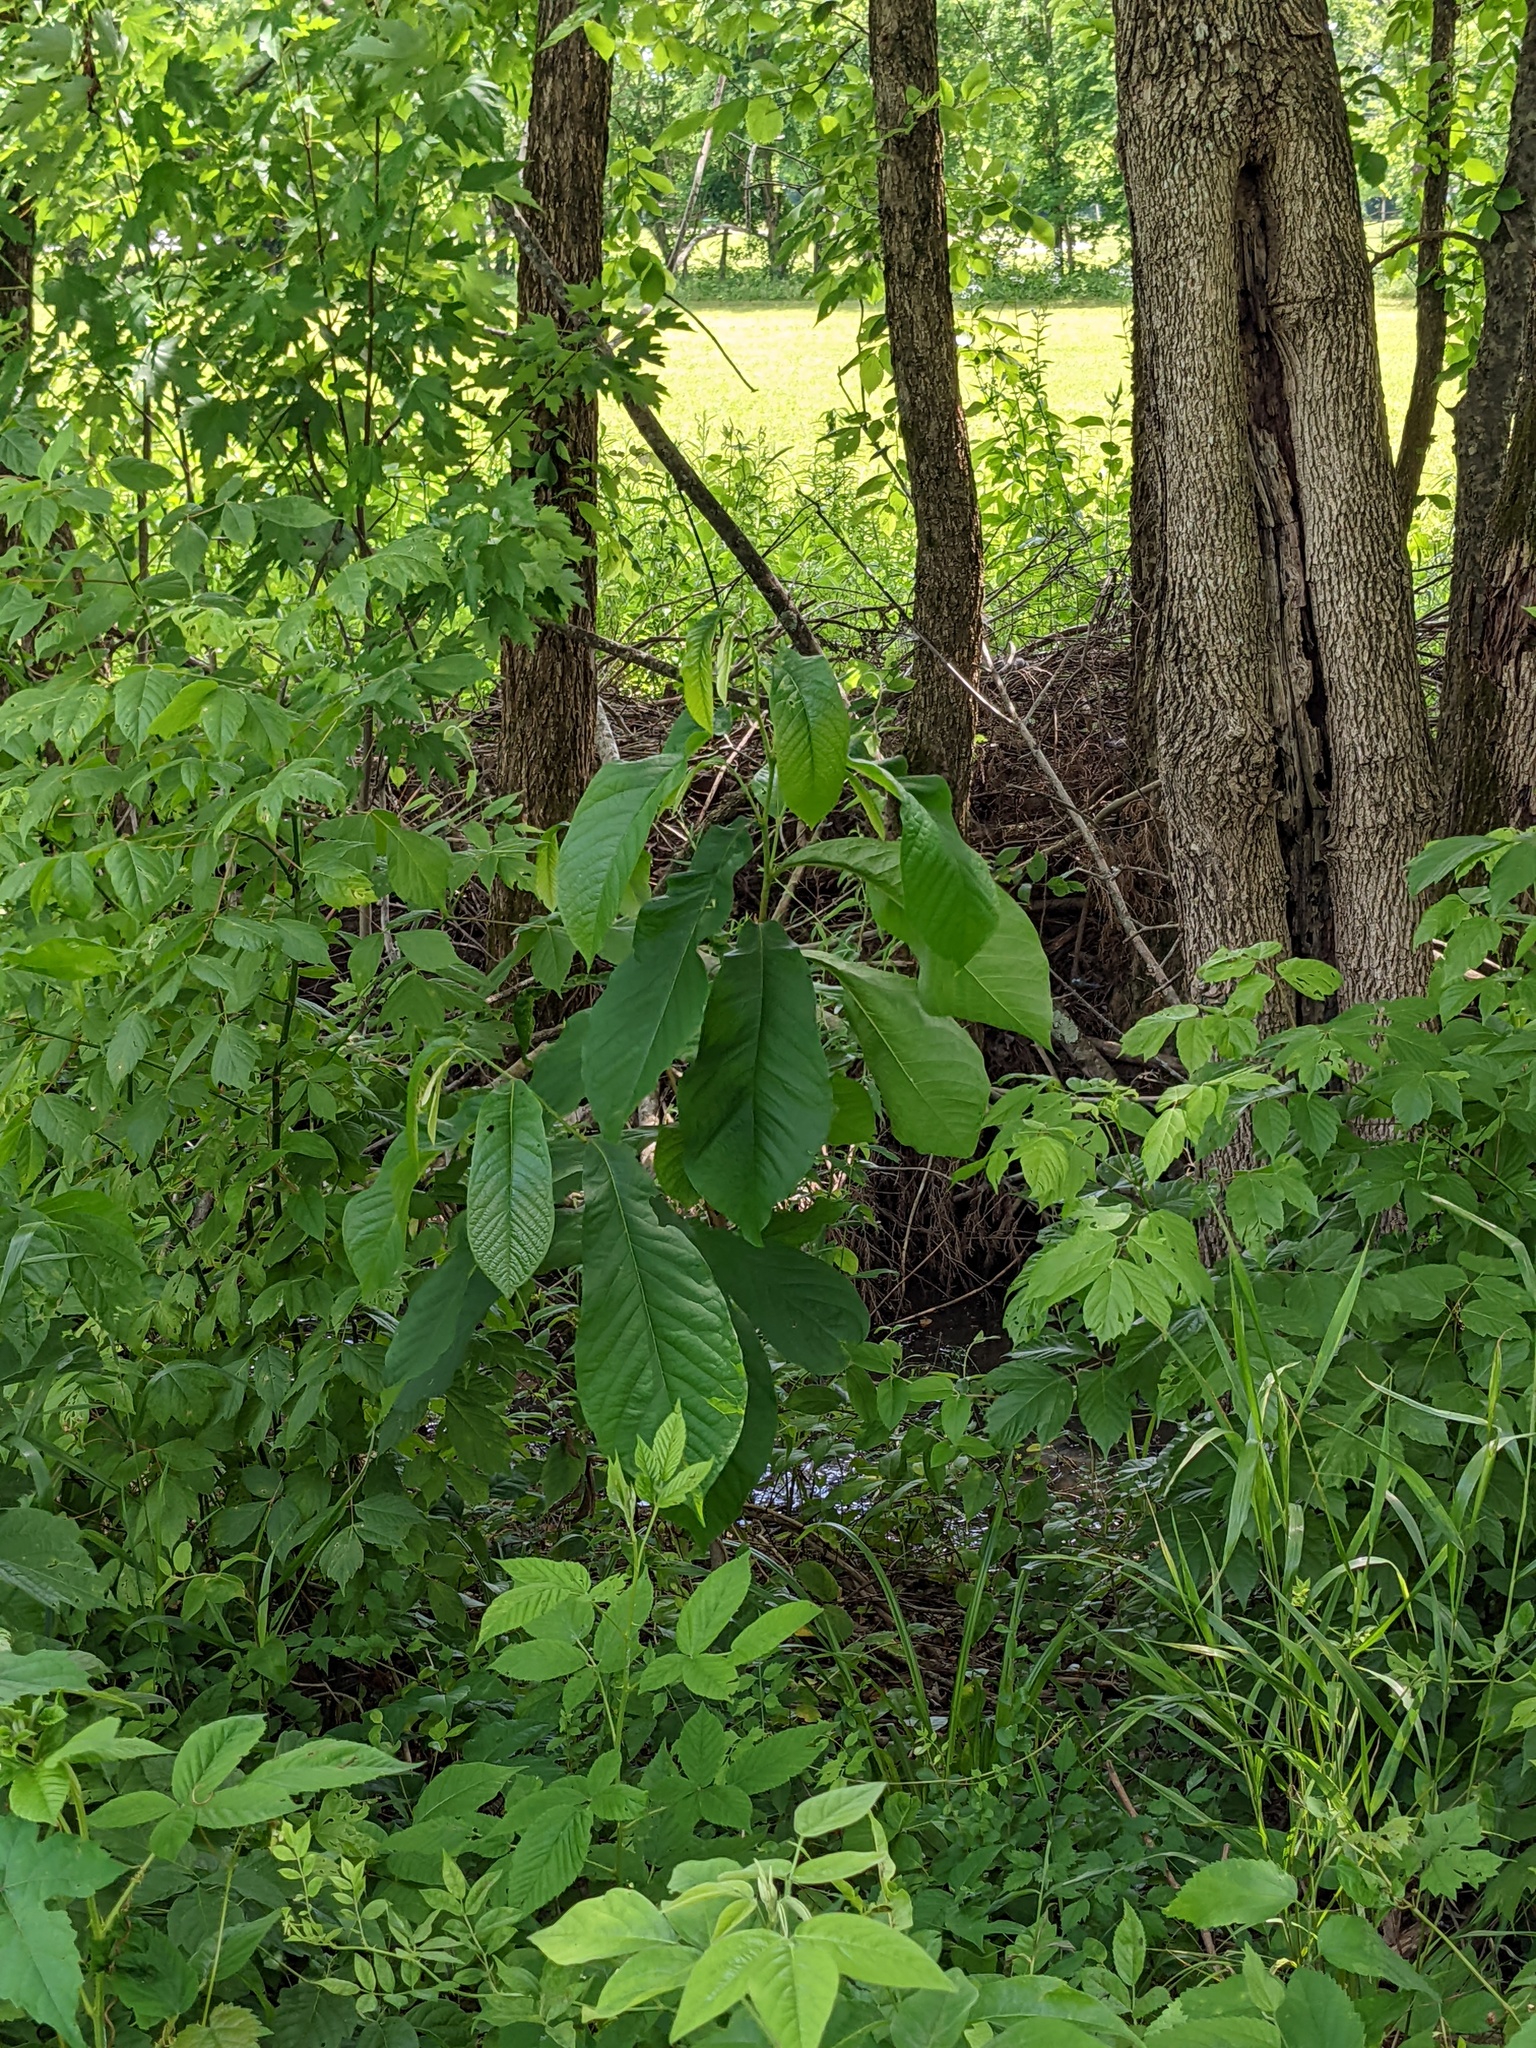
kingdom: Plantae
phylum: Tracheophyta
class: Magnoliopsida
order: Magnoliales
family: Annonaceae
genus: Asimina
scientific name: Asimina triloba
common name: Dog-banana
